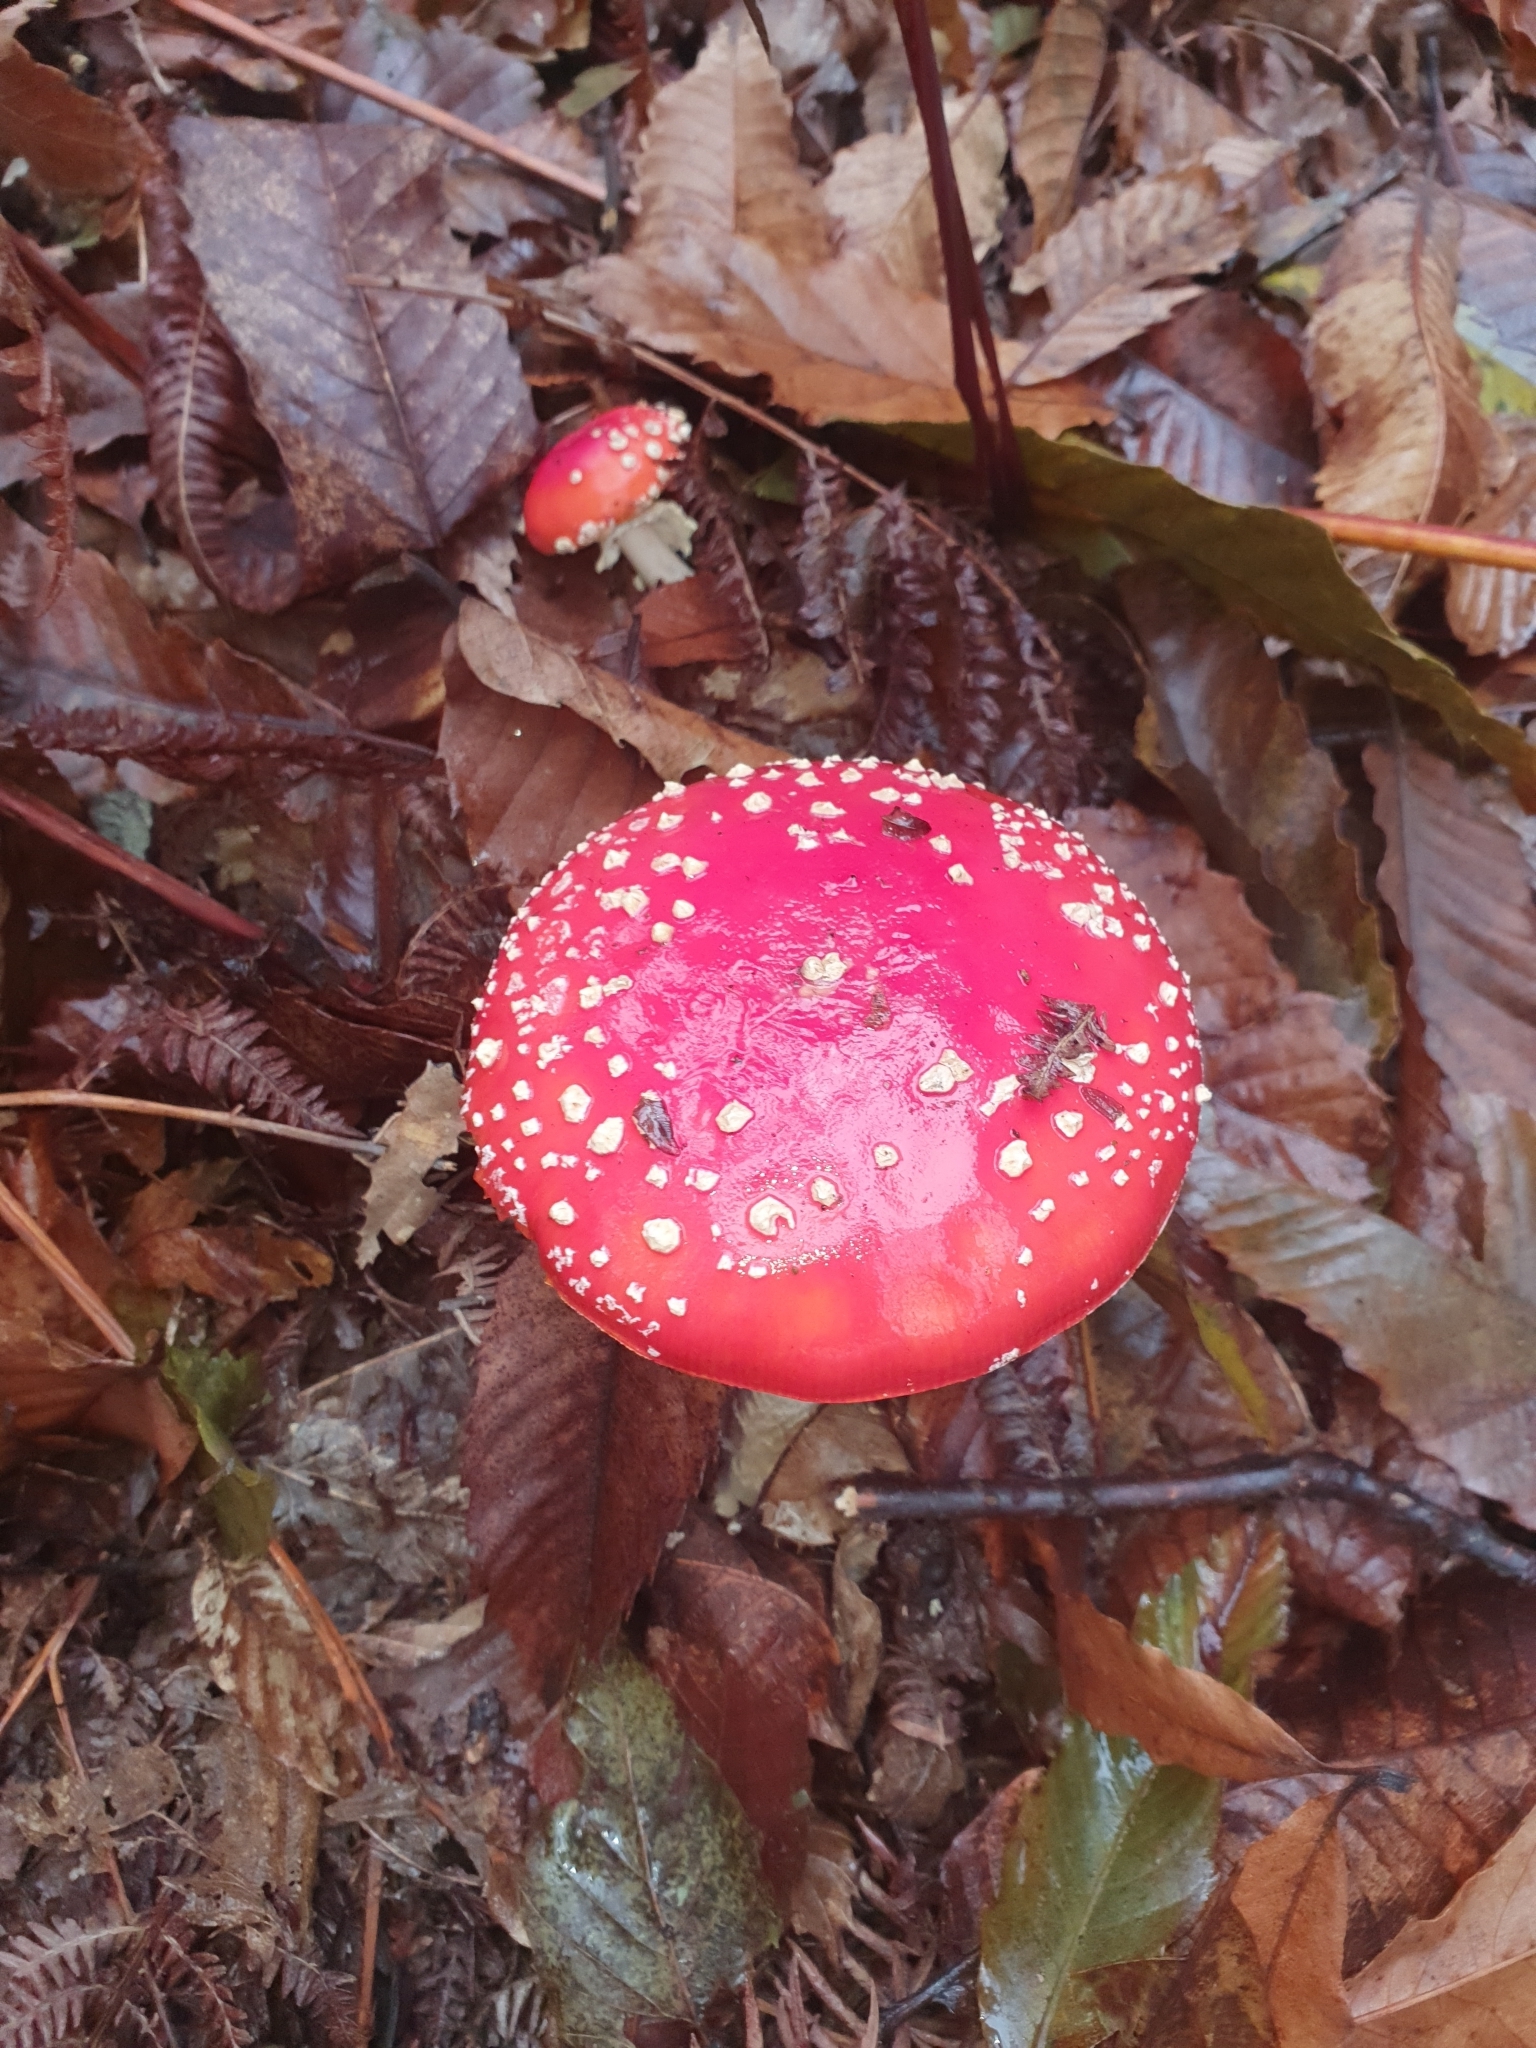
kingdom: Fungi
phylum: Basidiomycota
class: Agaricomycetes
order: Agaricales
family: Amanitaceae
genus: Amanita
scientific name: Amanita muscaria
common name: Fly agaric
